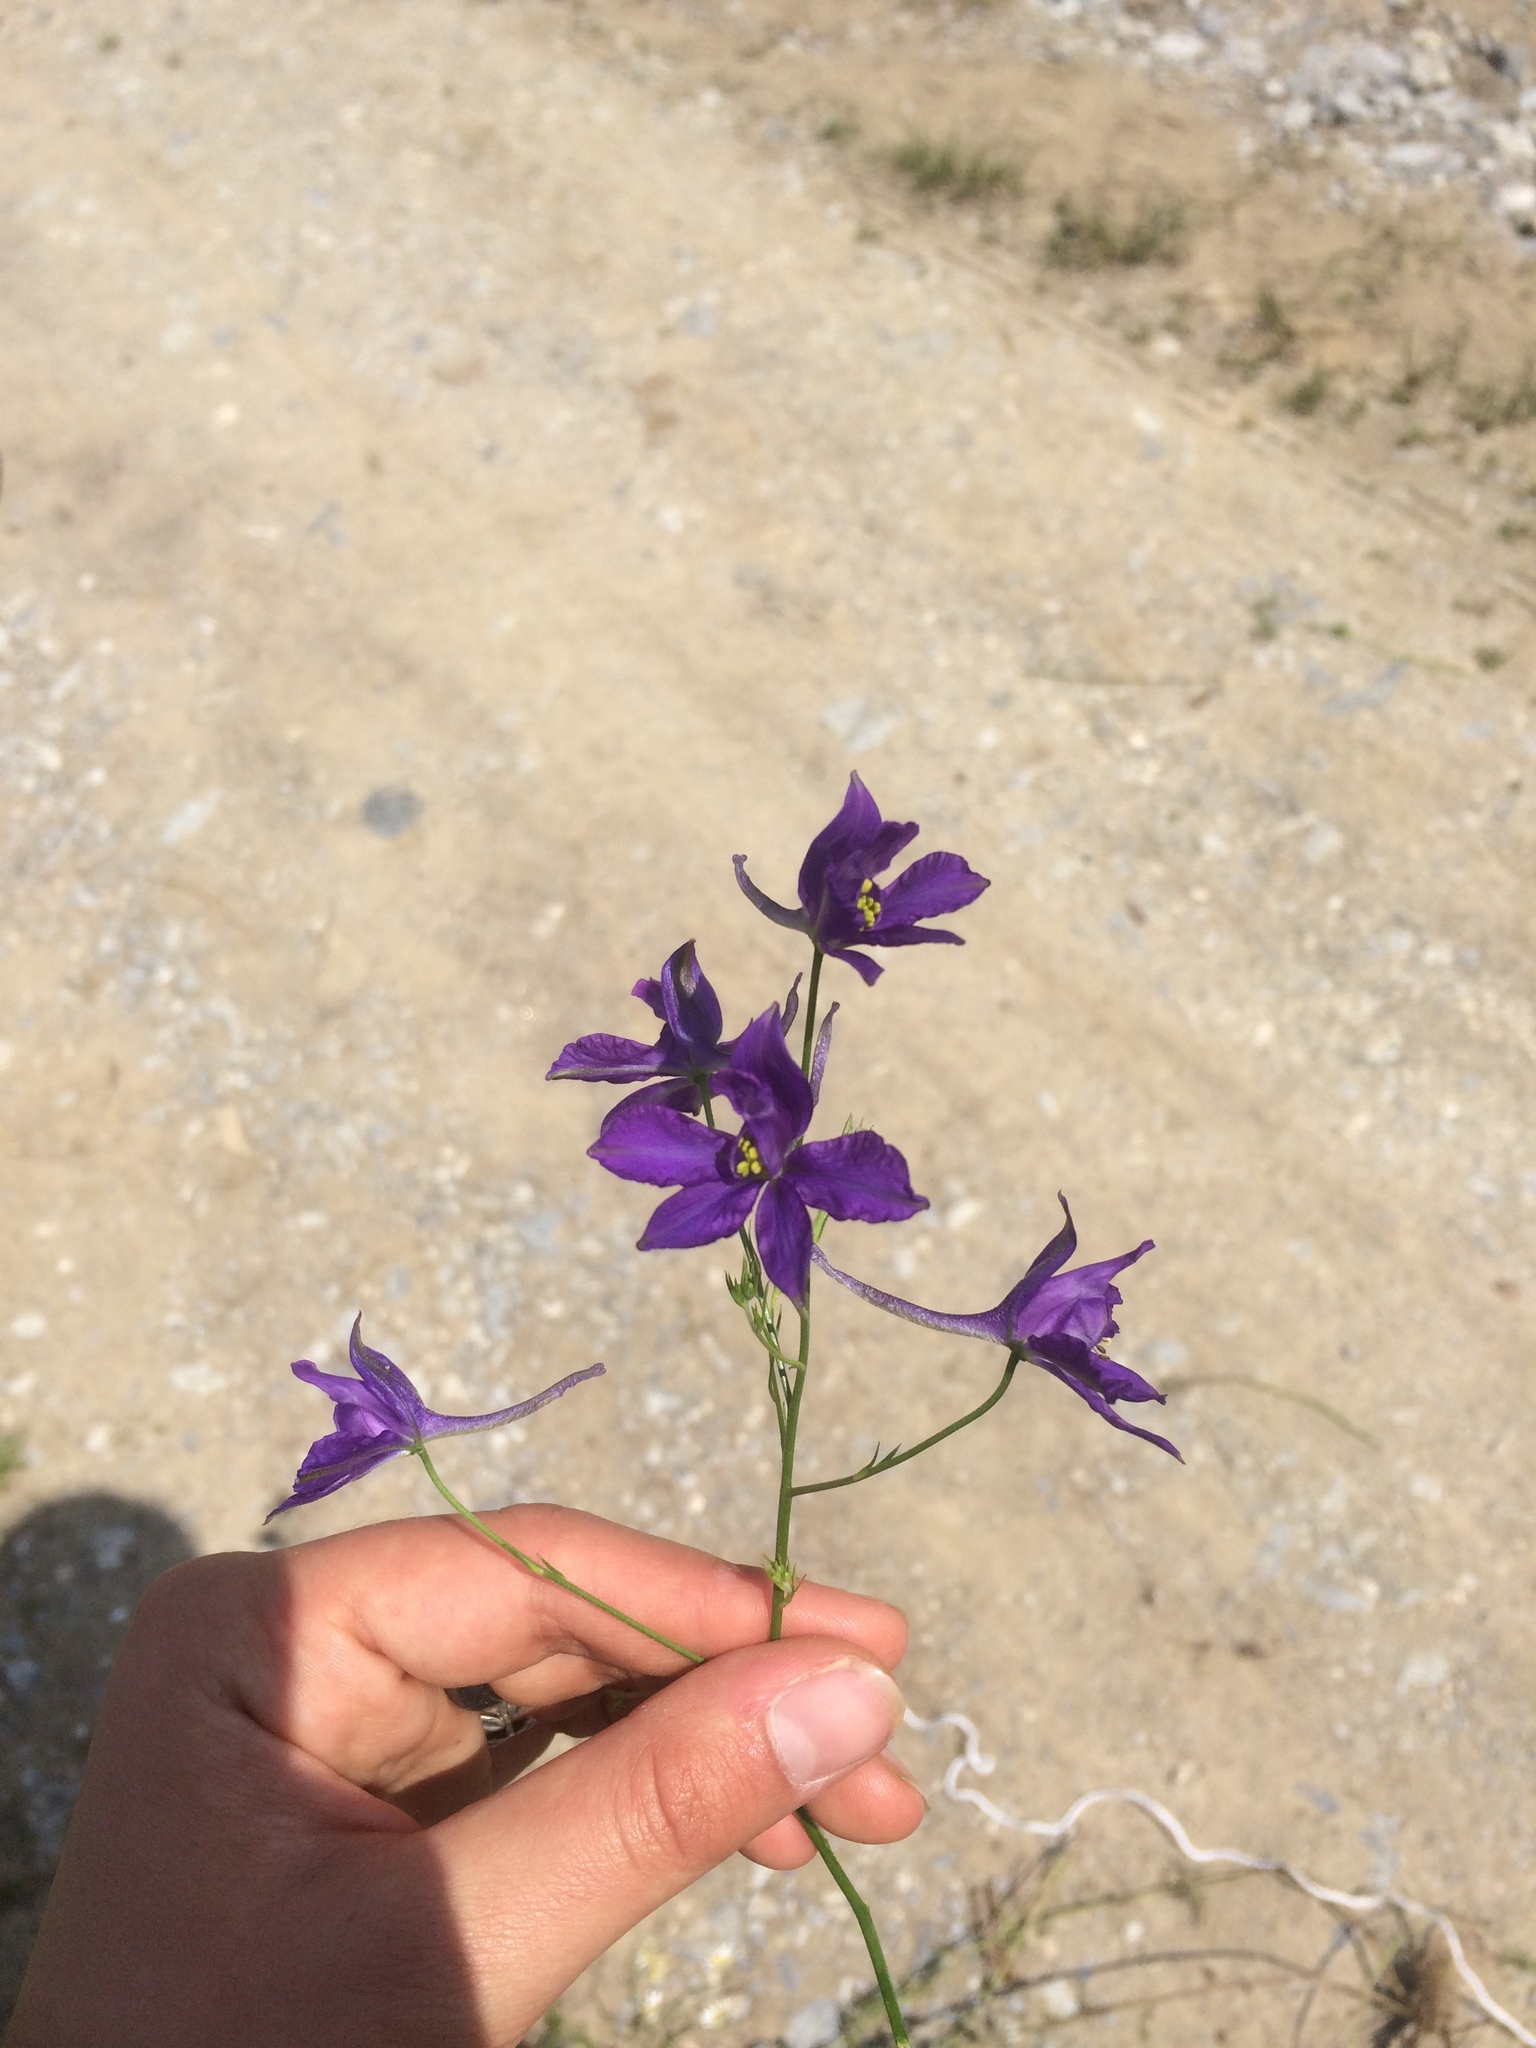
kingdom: Plantae
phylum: Tracheophyta
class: Magnoliopsida
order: Ranunculales
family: Ranunculaceae
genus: Delphinium
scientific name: Delphinium consolida
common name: Branching larkspur
